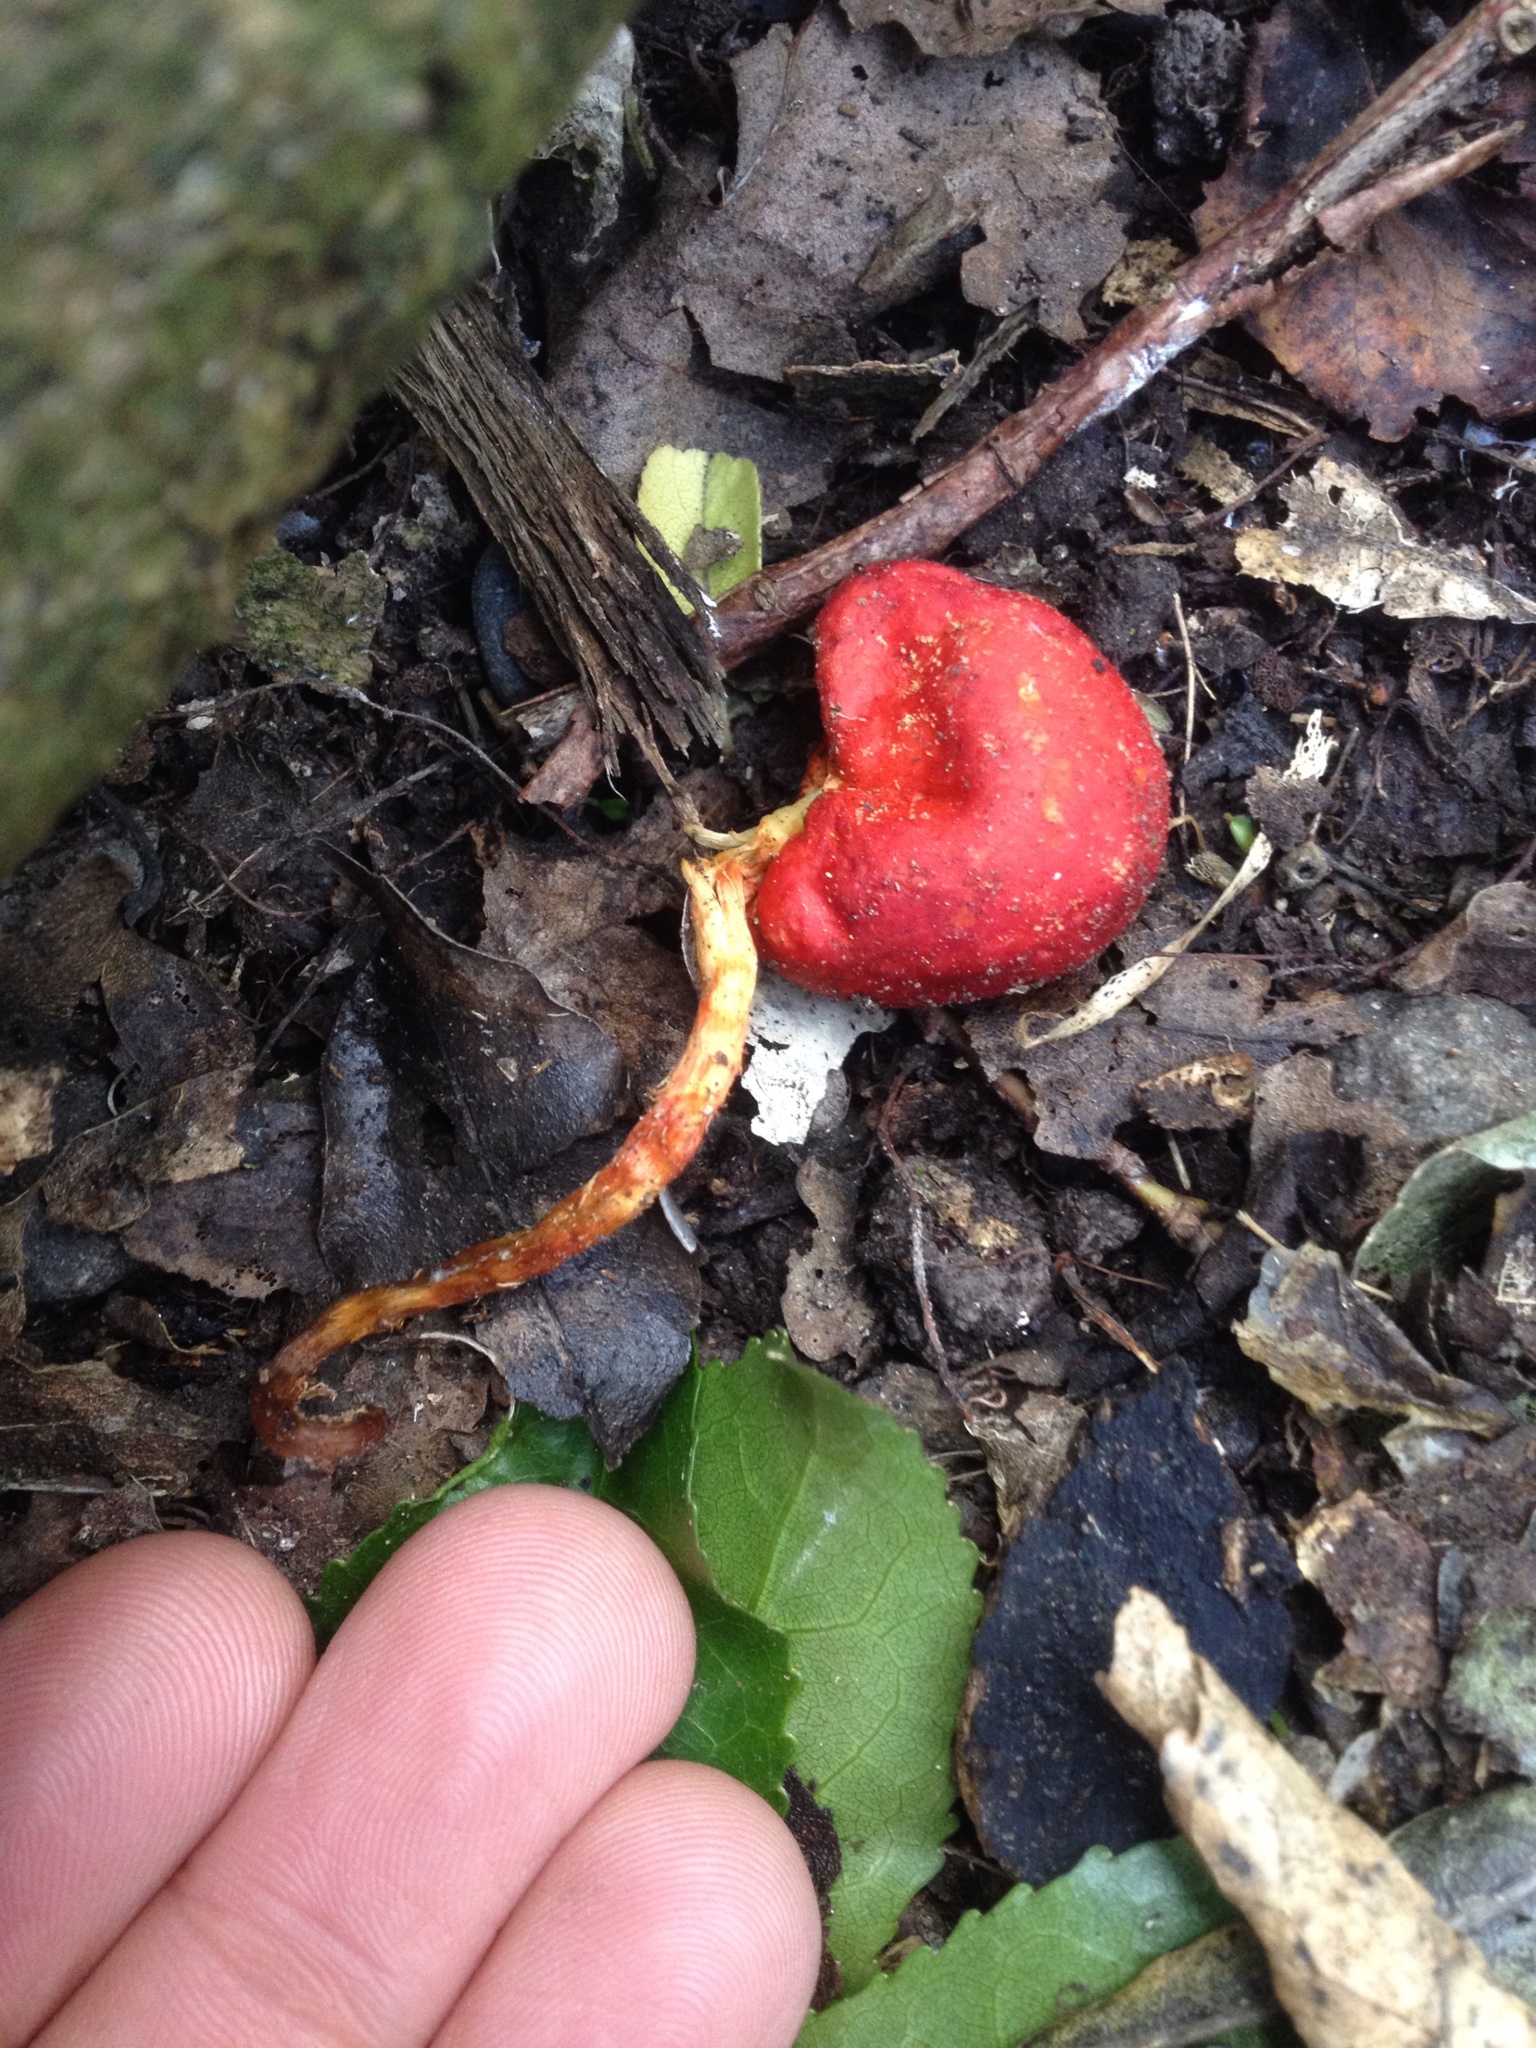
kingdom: Fungi
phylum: Basidiomycota
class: Agaricomycetes
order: Agaricales
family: Strophariaceae
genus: Leratiomyces
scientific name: Leratiomyces erythrocephalus
